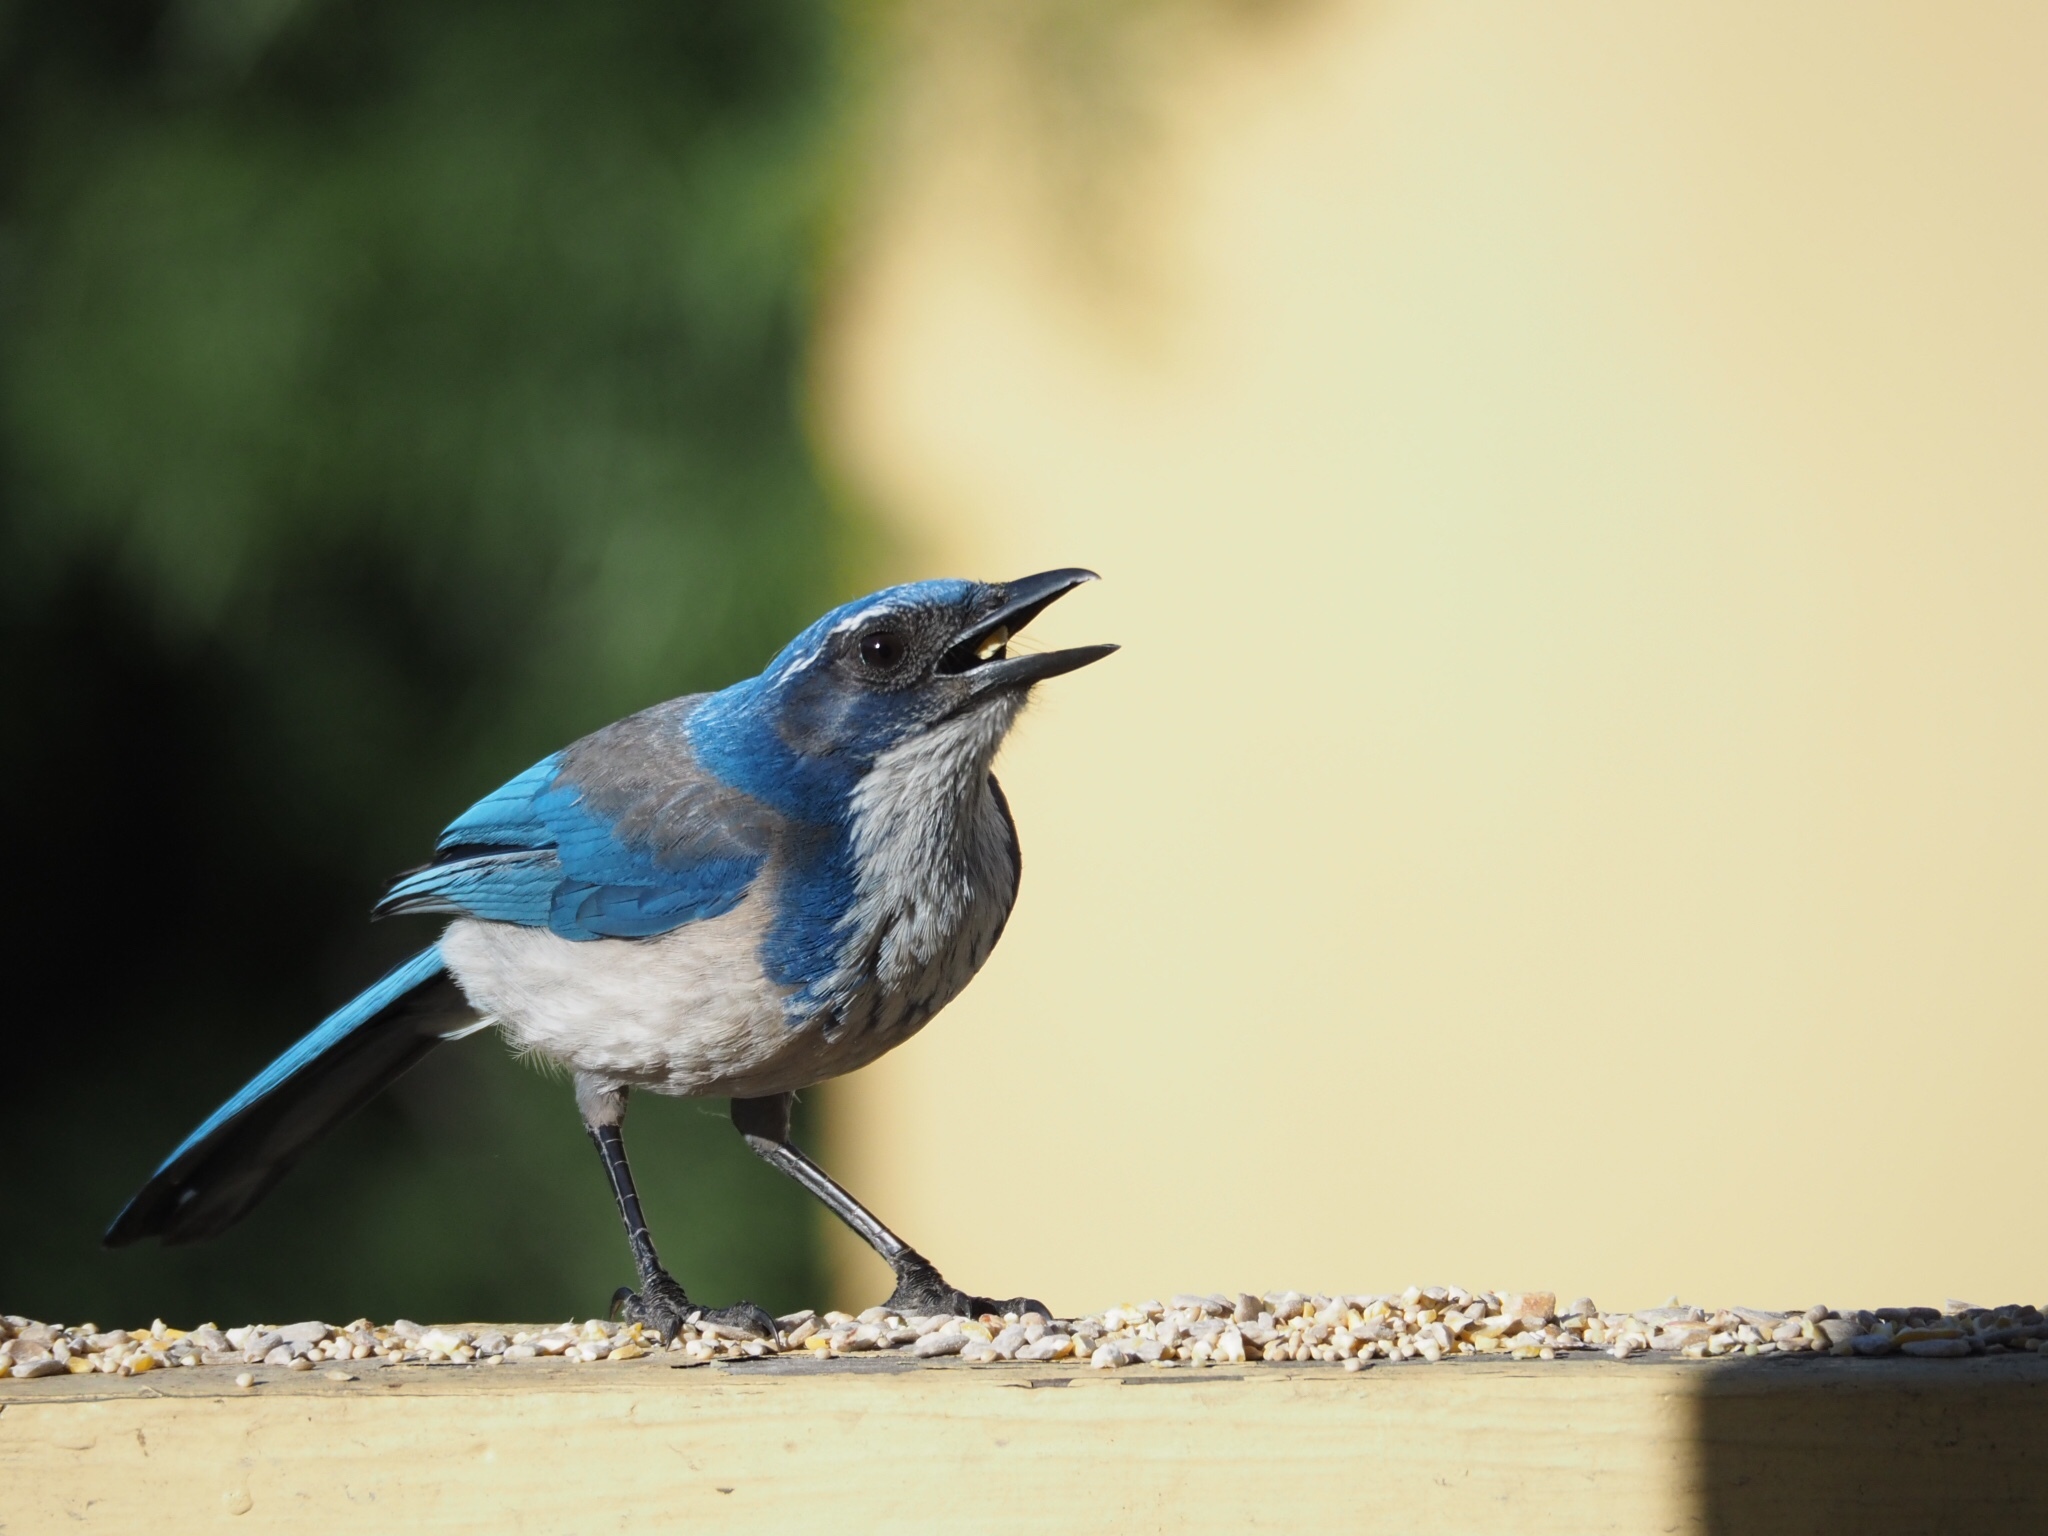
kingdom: Animalia
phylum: Chordata
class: Aves
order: Passeriformes
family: Corvidae
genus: Aphelocoma
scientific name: Aphelocoma californica
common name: California scrub-jay
